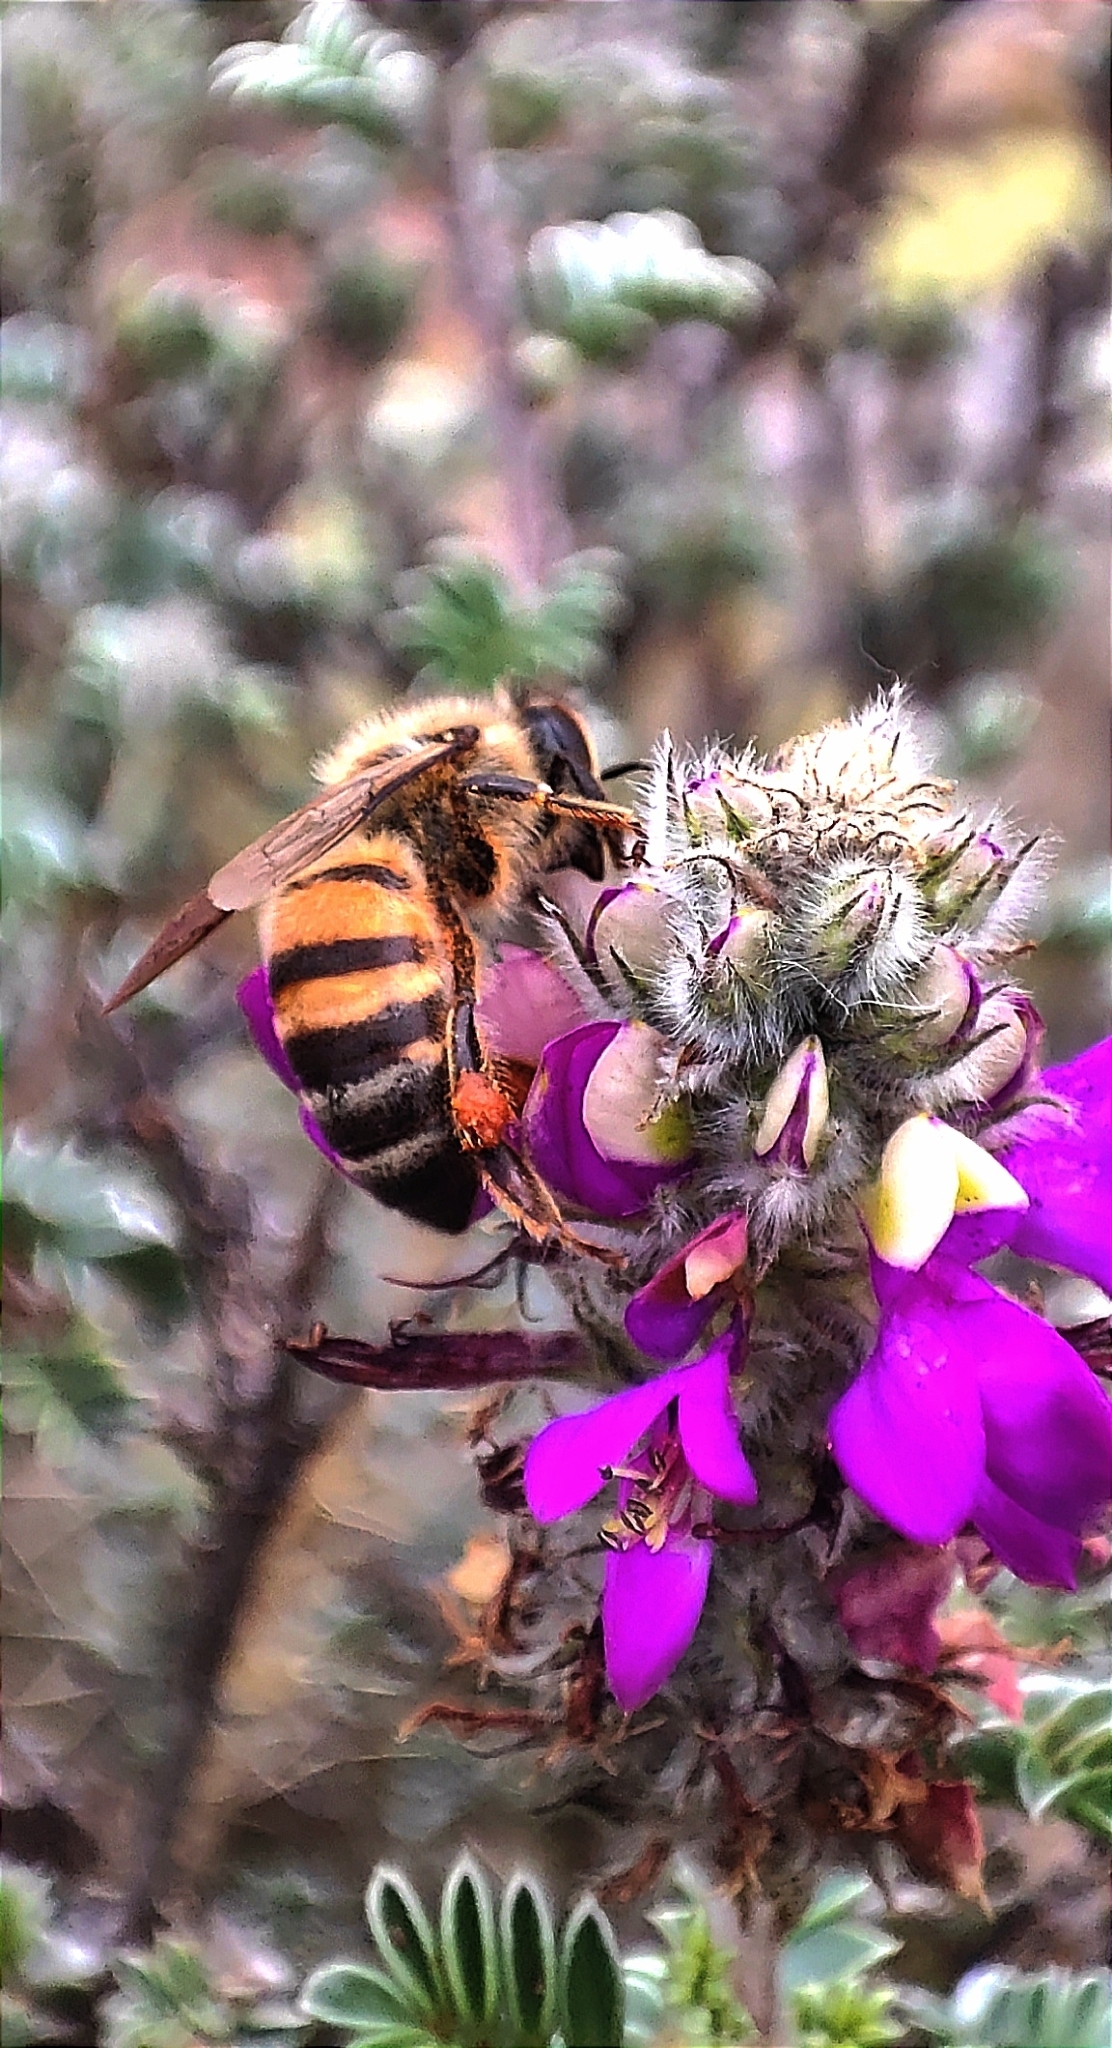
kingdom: Animalia
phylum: Arthropoda
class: Insecta
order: Hymenoptera
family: Apidae
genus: Apis
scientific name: Apis mellifera
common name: Honey bee
